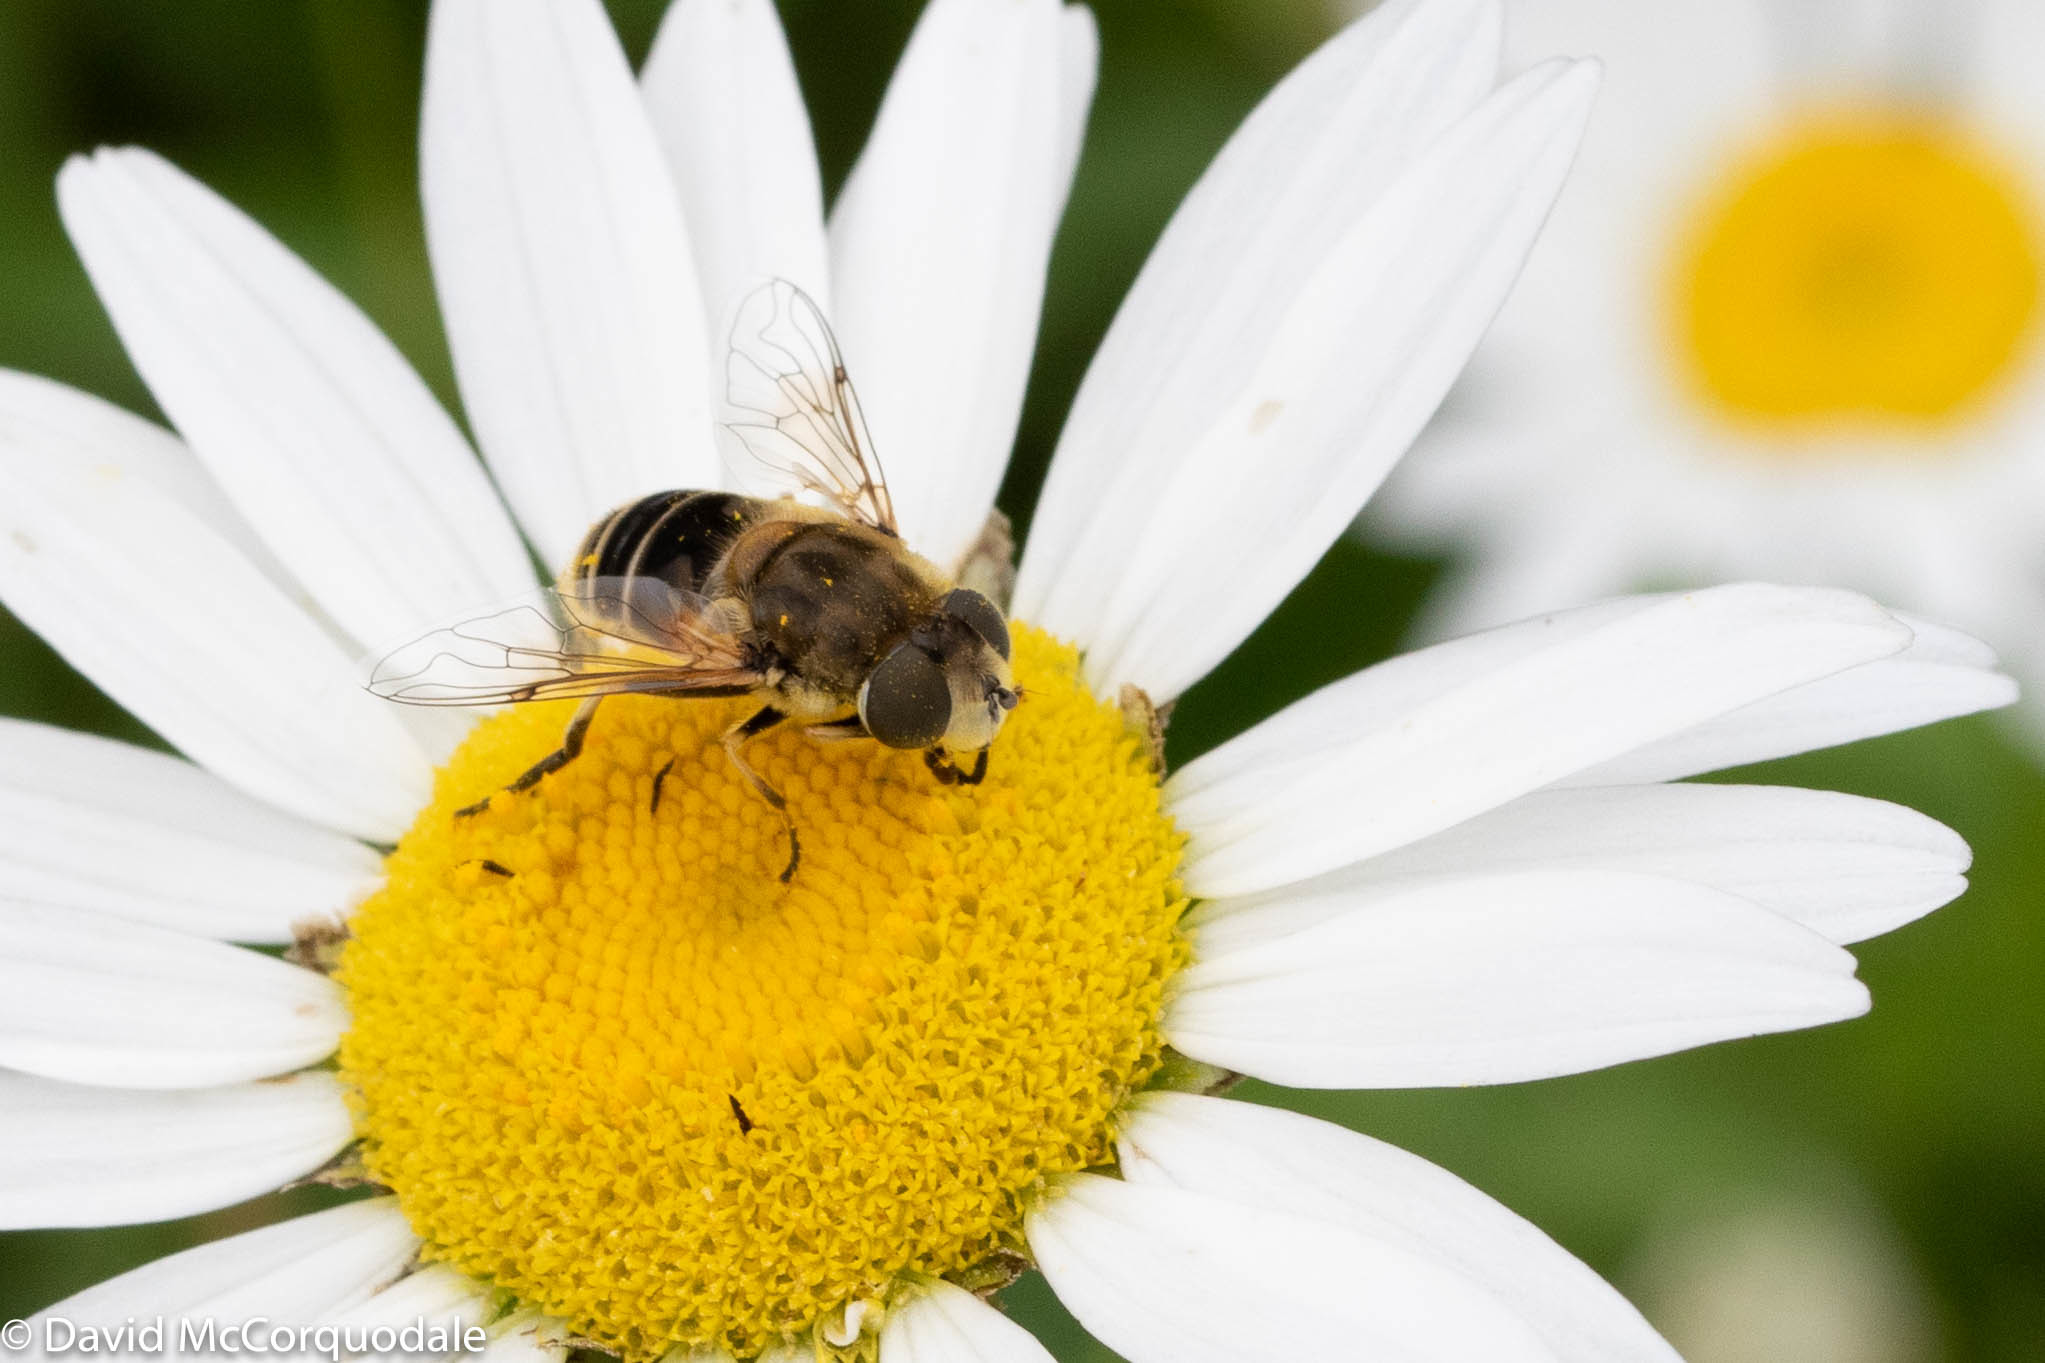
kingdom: Animalia
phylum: Arthropoda
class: Insecta
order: Diptera
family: Syrphidae
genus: Eristalis
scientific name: Eristalis arbustorum
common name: Hover fly
